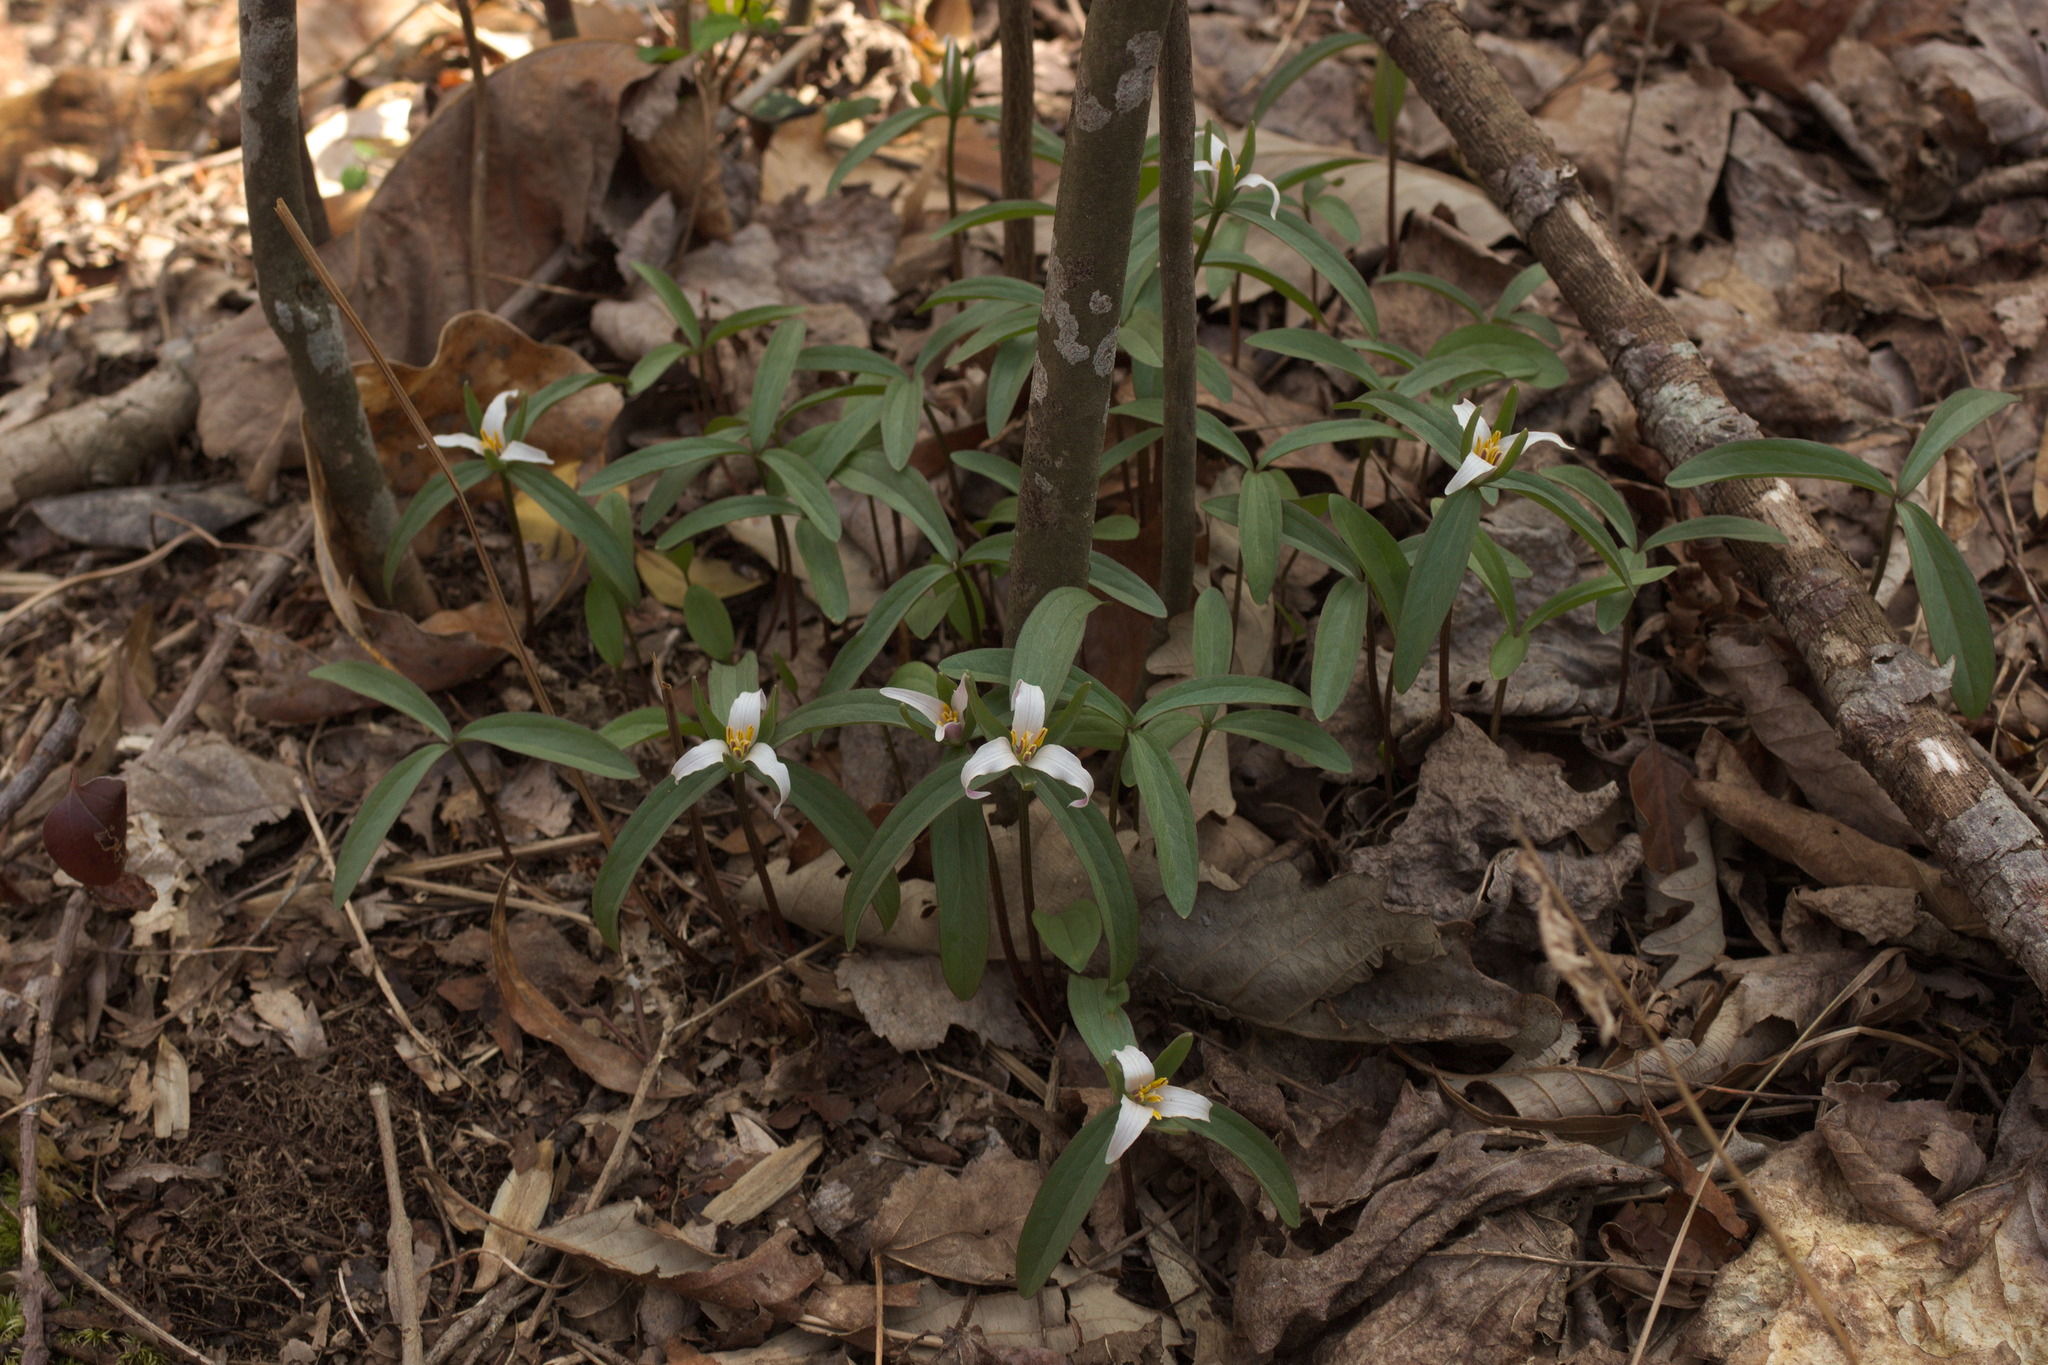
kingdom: Plantae
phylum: Tracheophyta
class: Liliopsida
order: Liliales
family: Melanthiaceae
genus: Trillium
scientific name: Trillium pusillum
